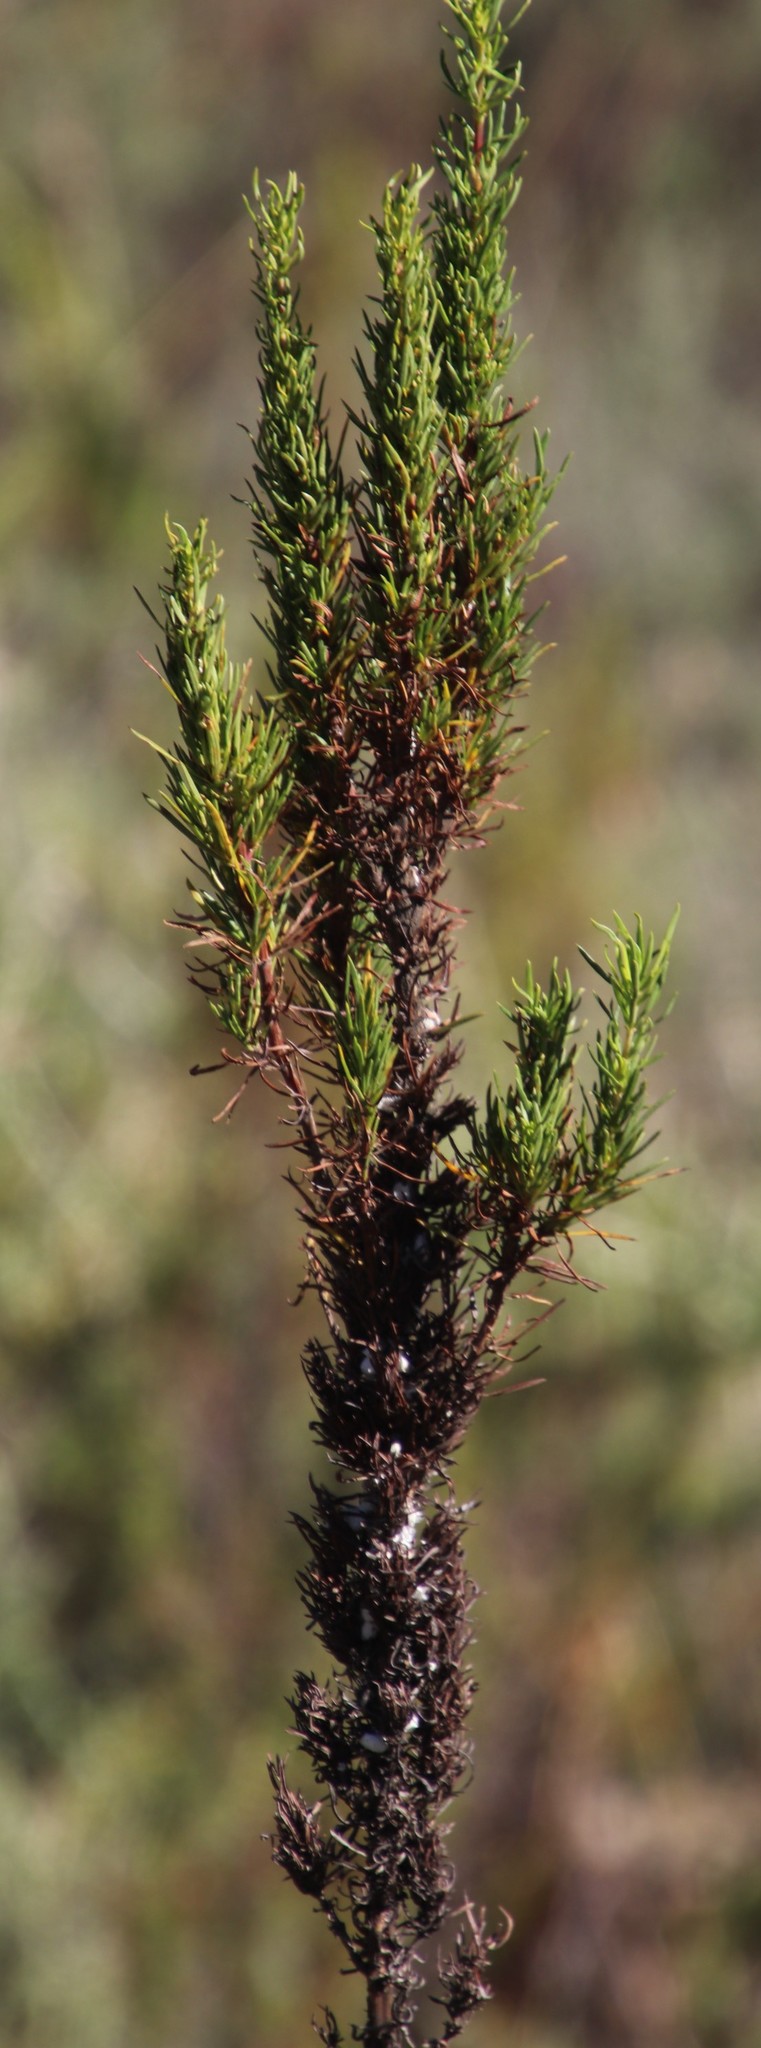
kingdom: Plantae
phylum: Tracheophyta
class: Magnoliopsida
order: Gentianales
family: Rubiaceae
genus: Anthospermum
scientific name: Anthospermum aethiopicum
